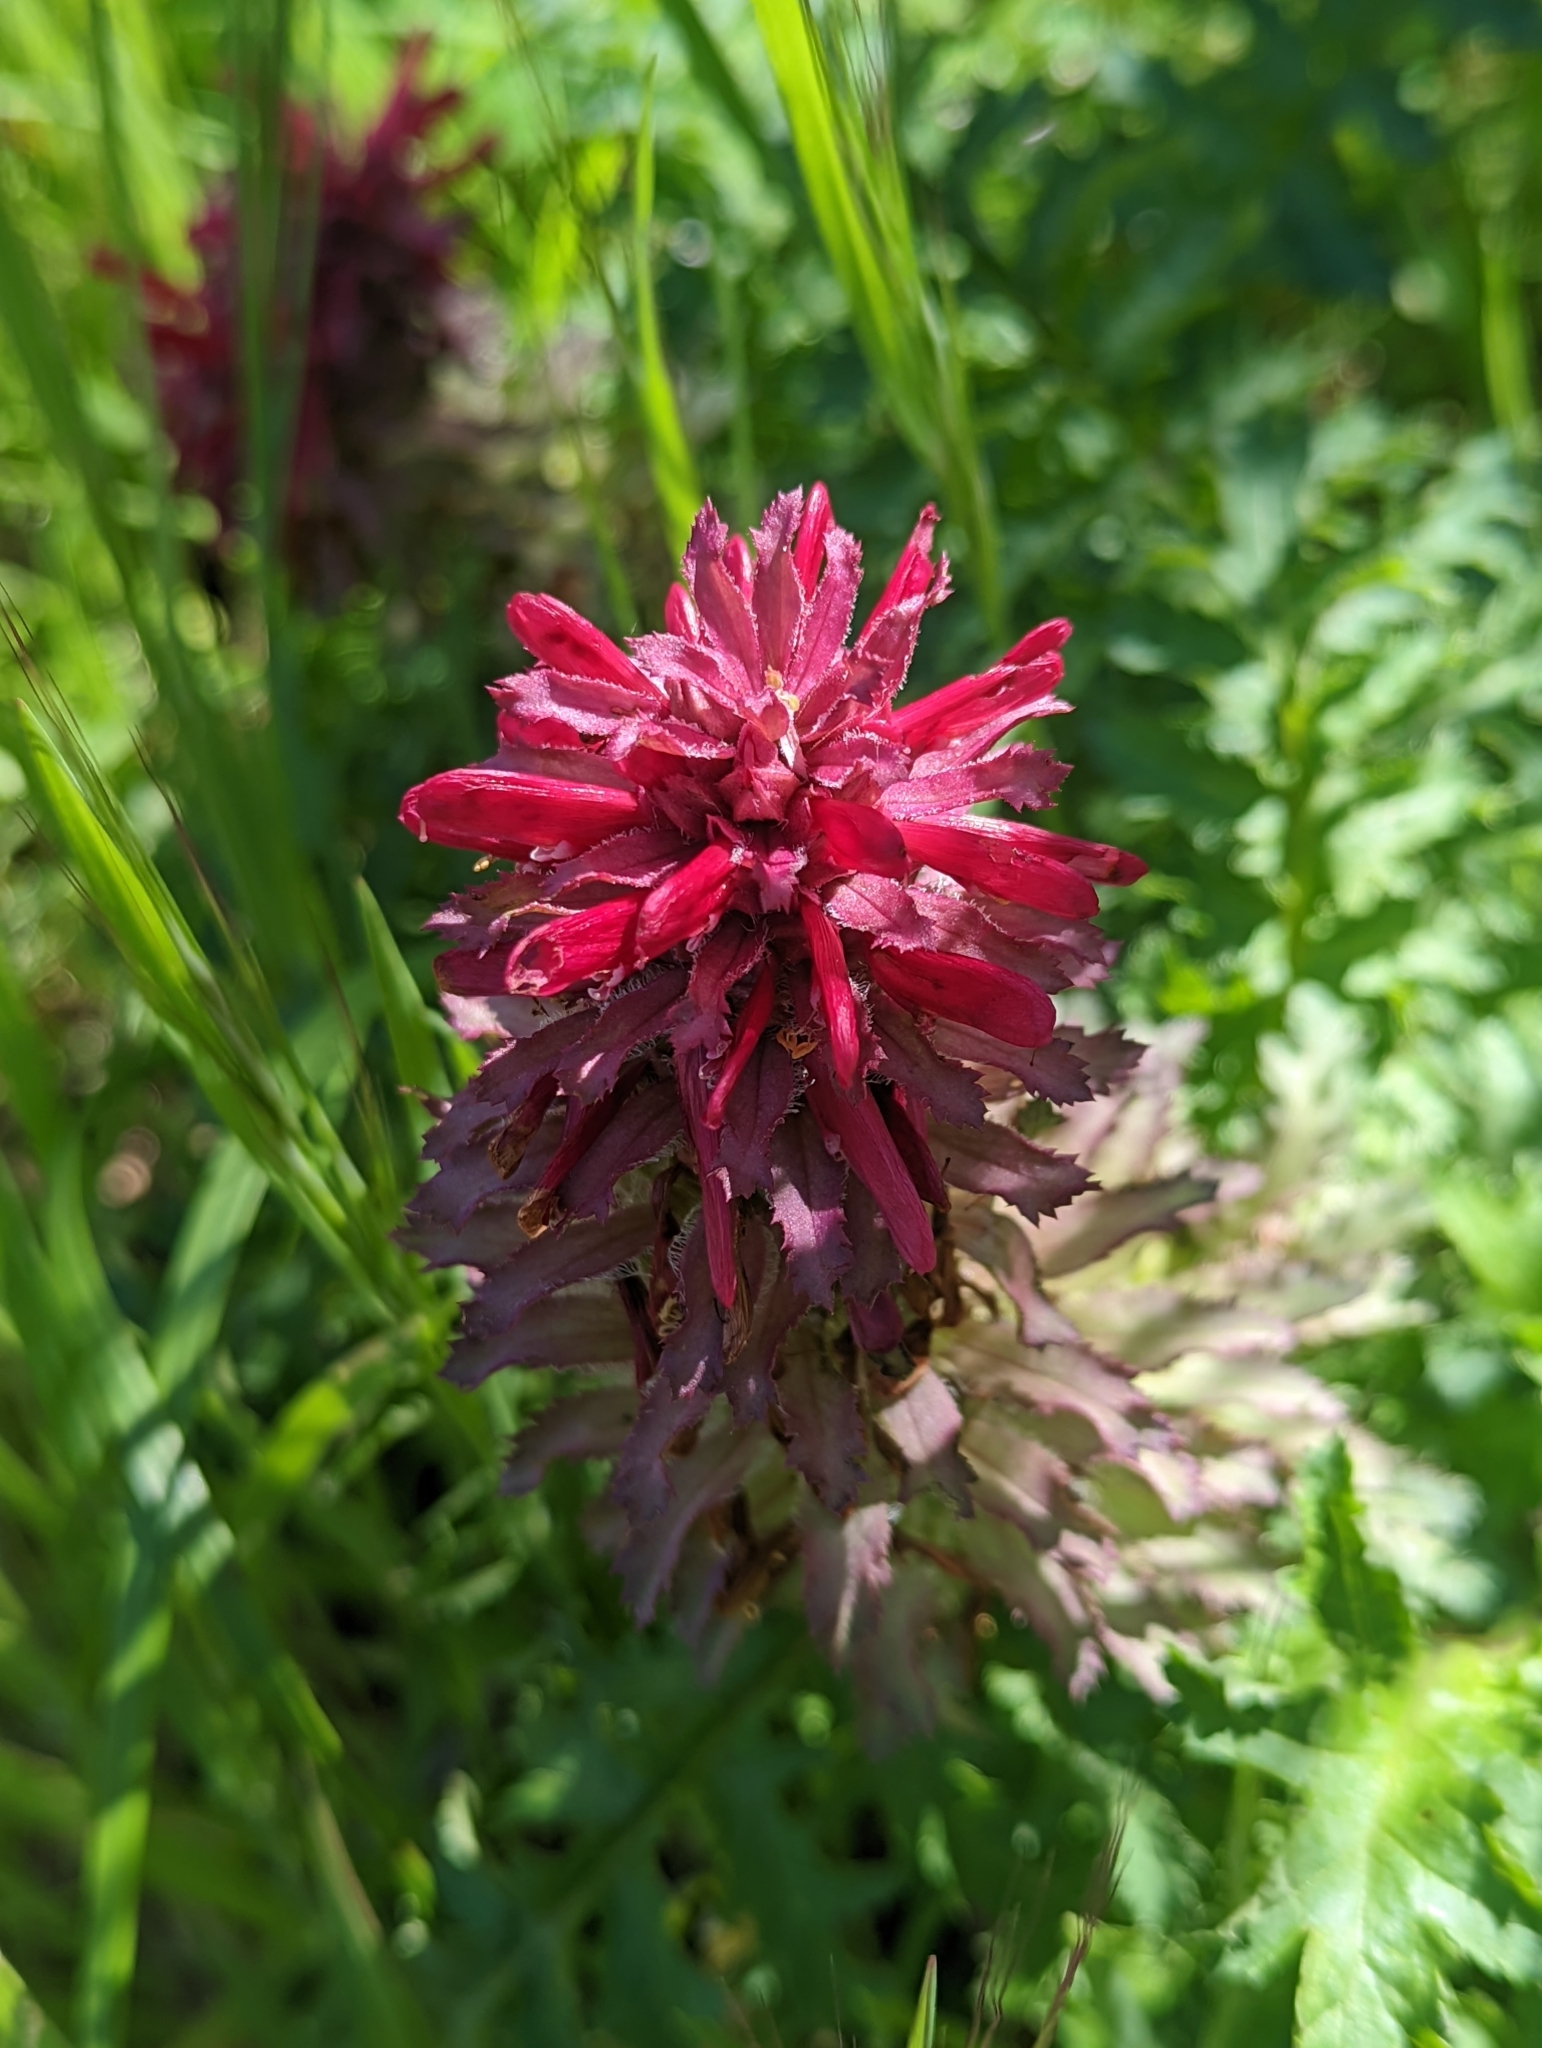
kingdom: Plantae
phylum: Tracheophyta
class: Magnoliopsida
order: Lamiales
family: Orobanchaceae
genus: Pedicularis
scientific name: Pedicularis densiflora
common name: Indian warrior
